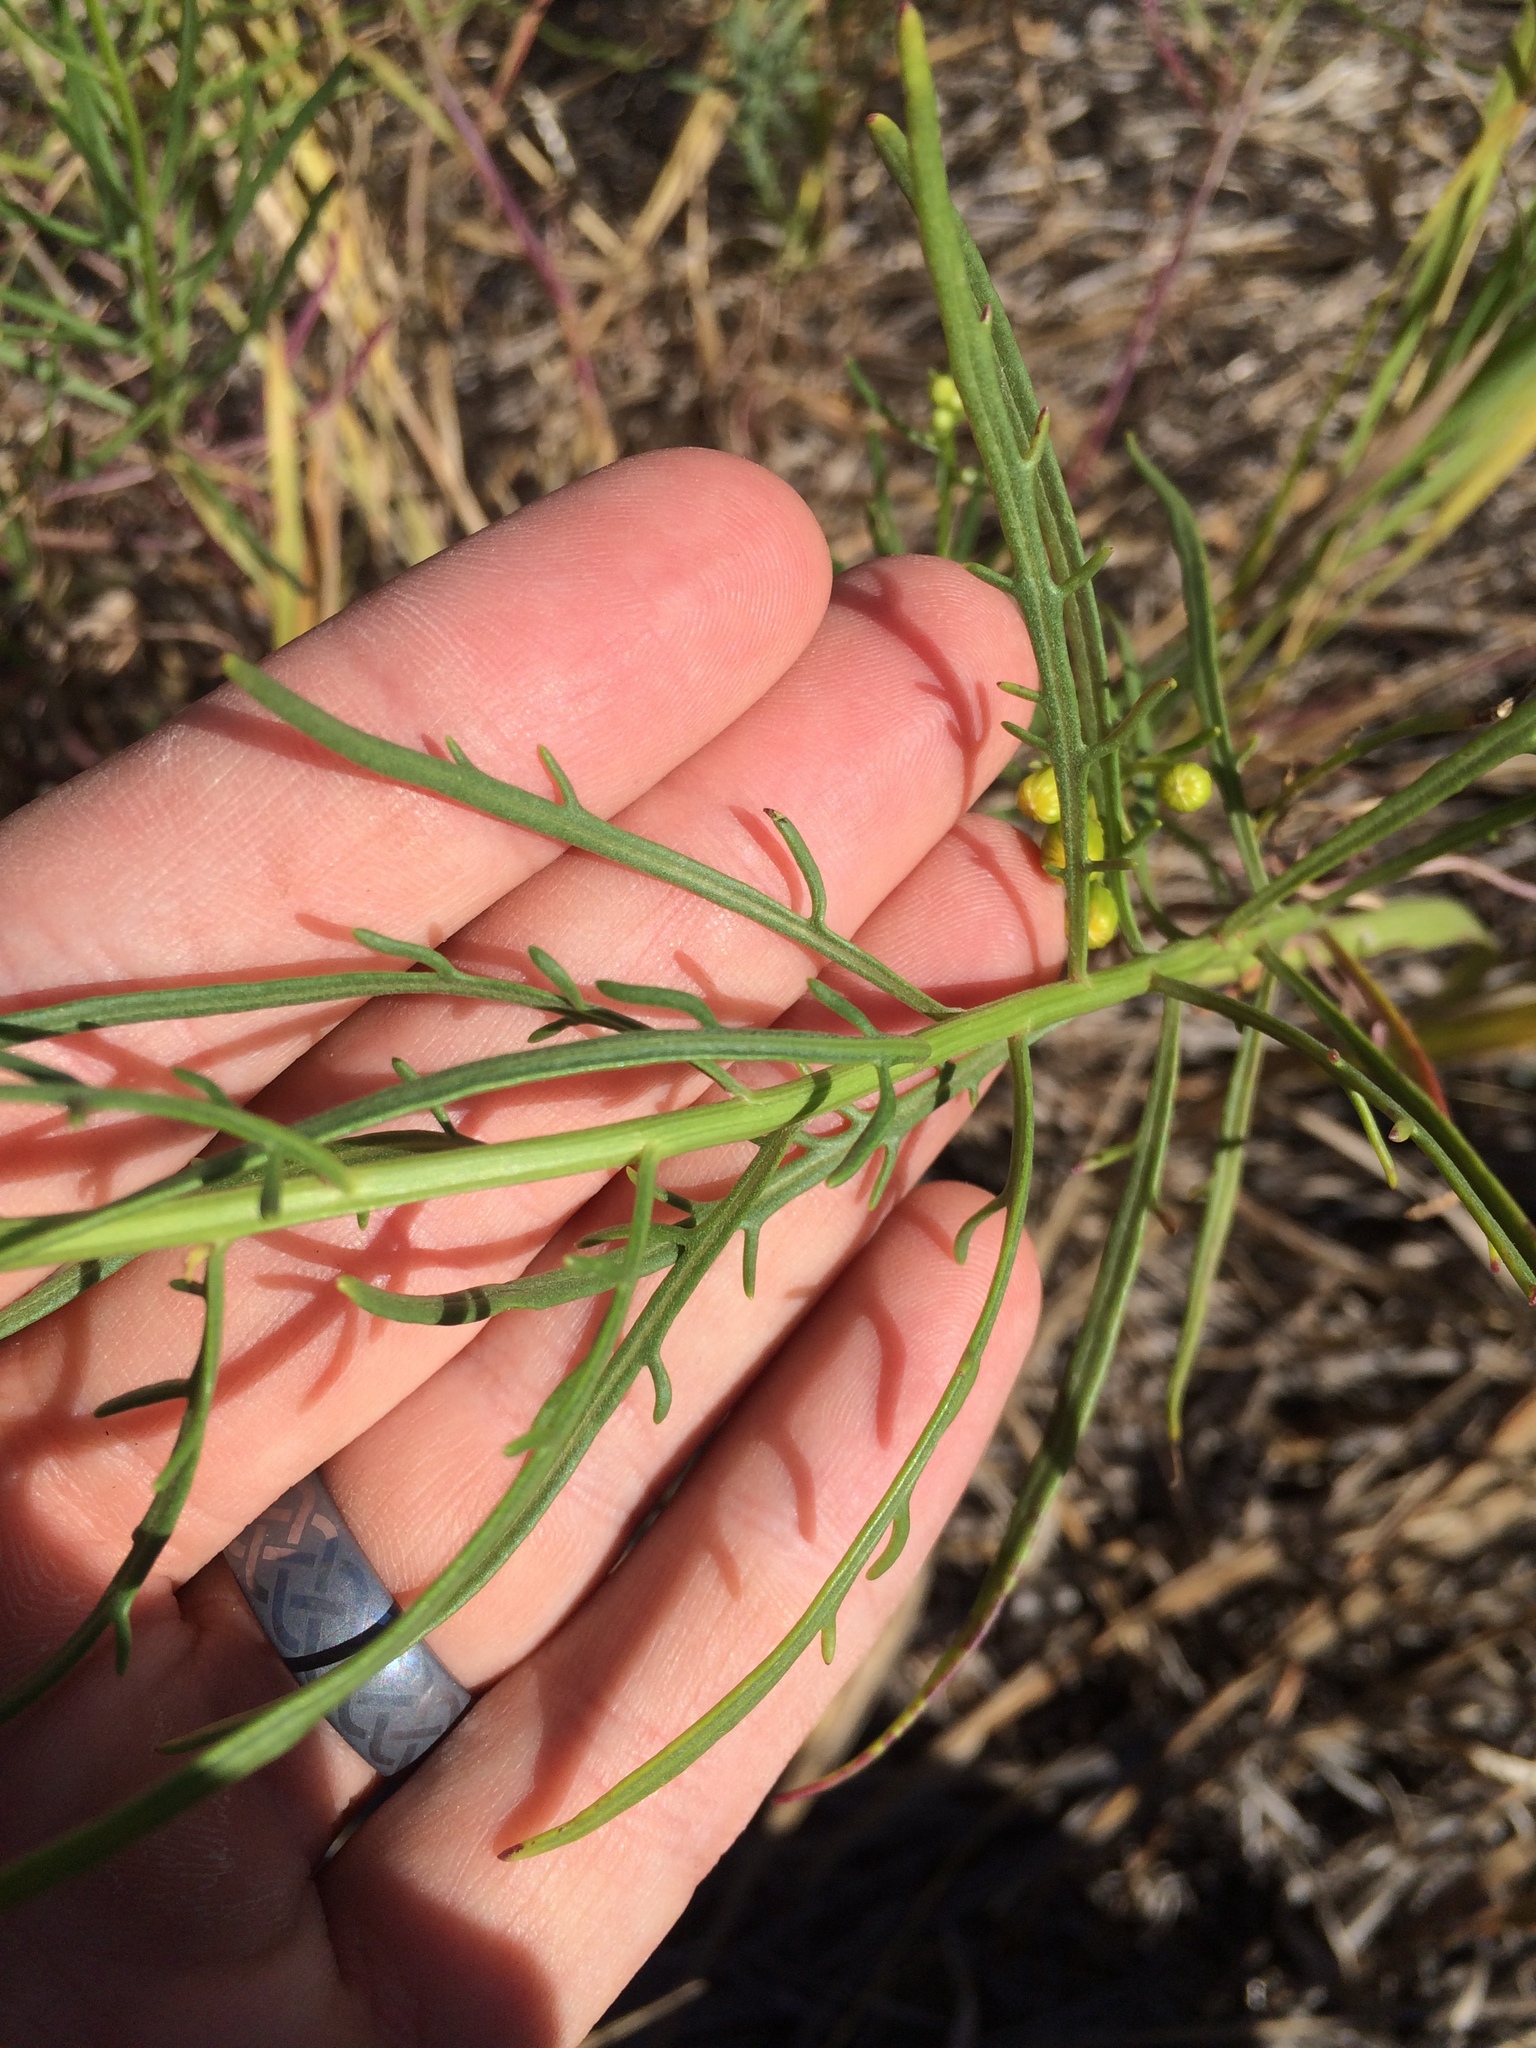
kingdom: Plantae
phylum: Tracheophyta
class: Magnoliopsida
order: Asterales
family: Asteraceae
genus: Senecio
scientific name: Senecio flaccidus
